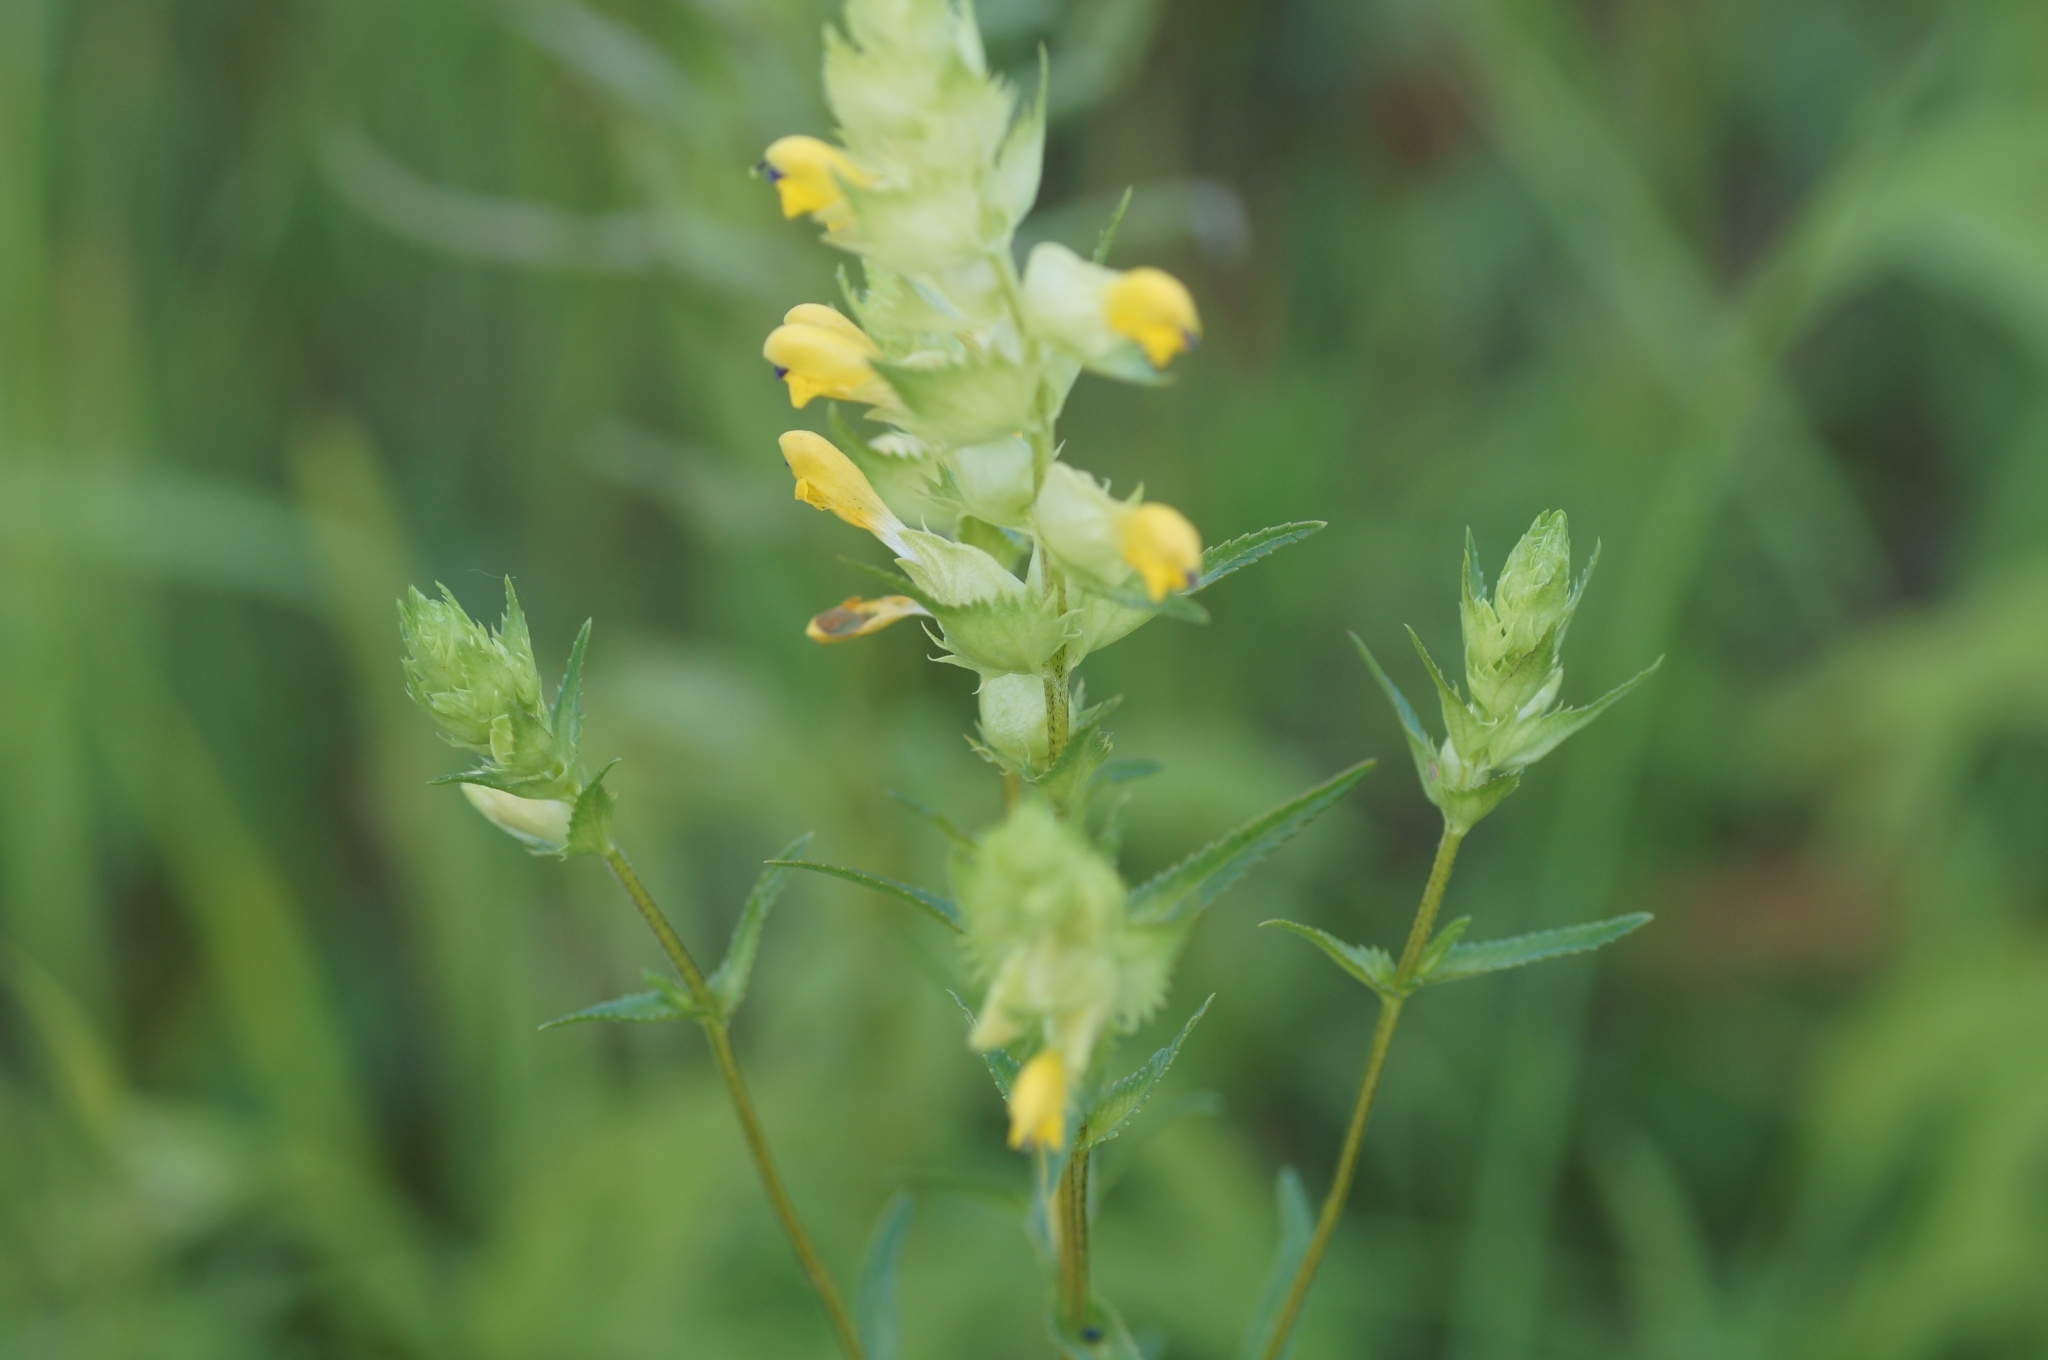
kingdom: Plantae
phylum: Tracheophyta
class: Magnoliopsida
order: Lamiales
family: Orobanchaceae
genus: Rhinanthus
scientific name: Rhinanthus serotinus
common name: Late-flowering yellow rattle
